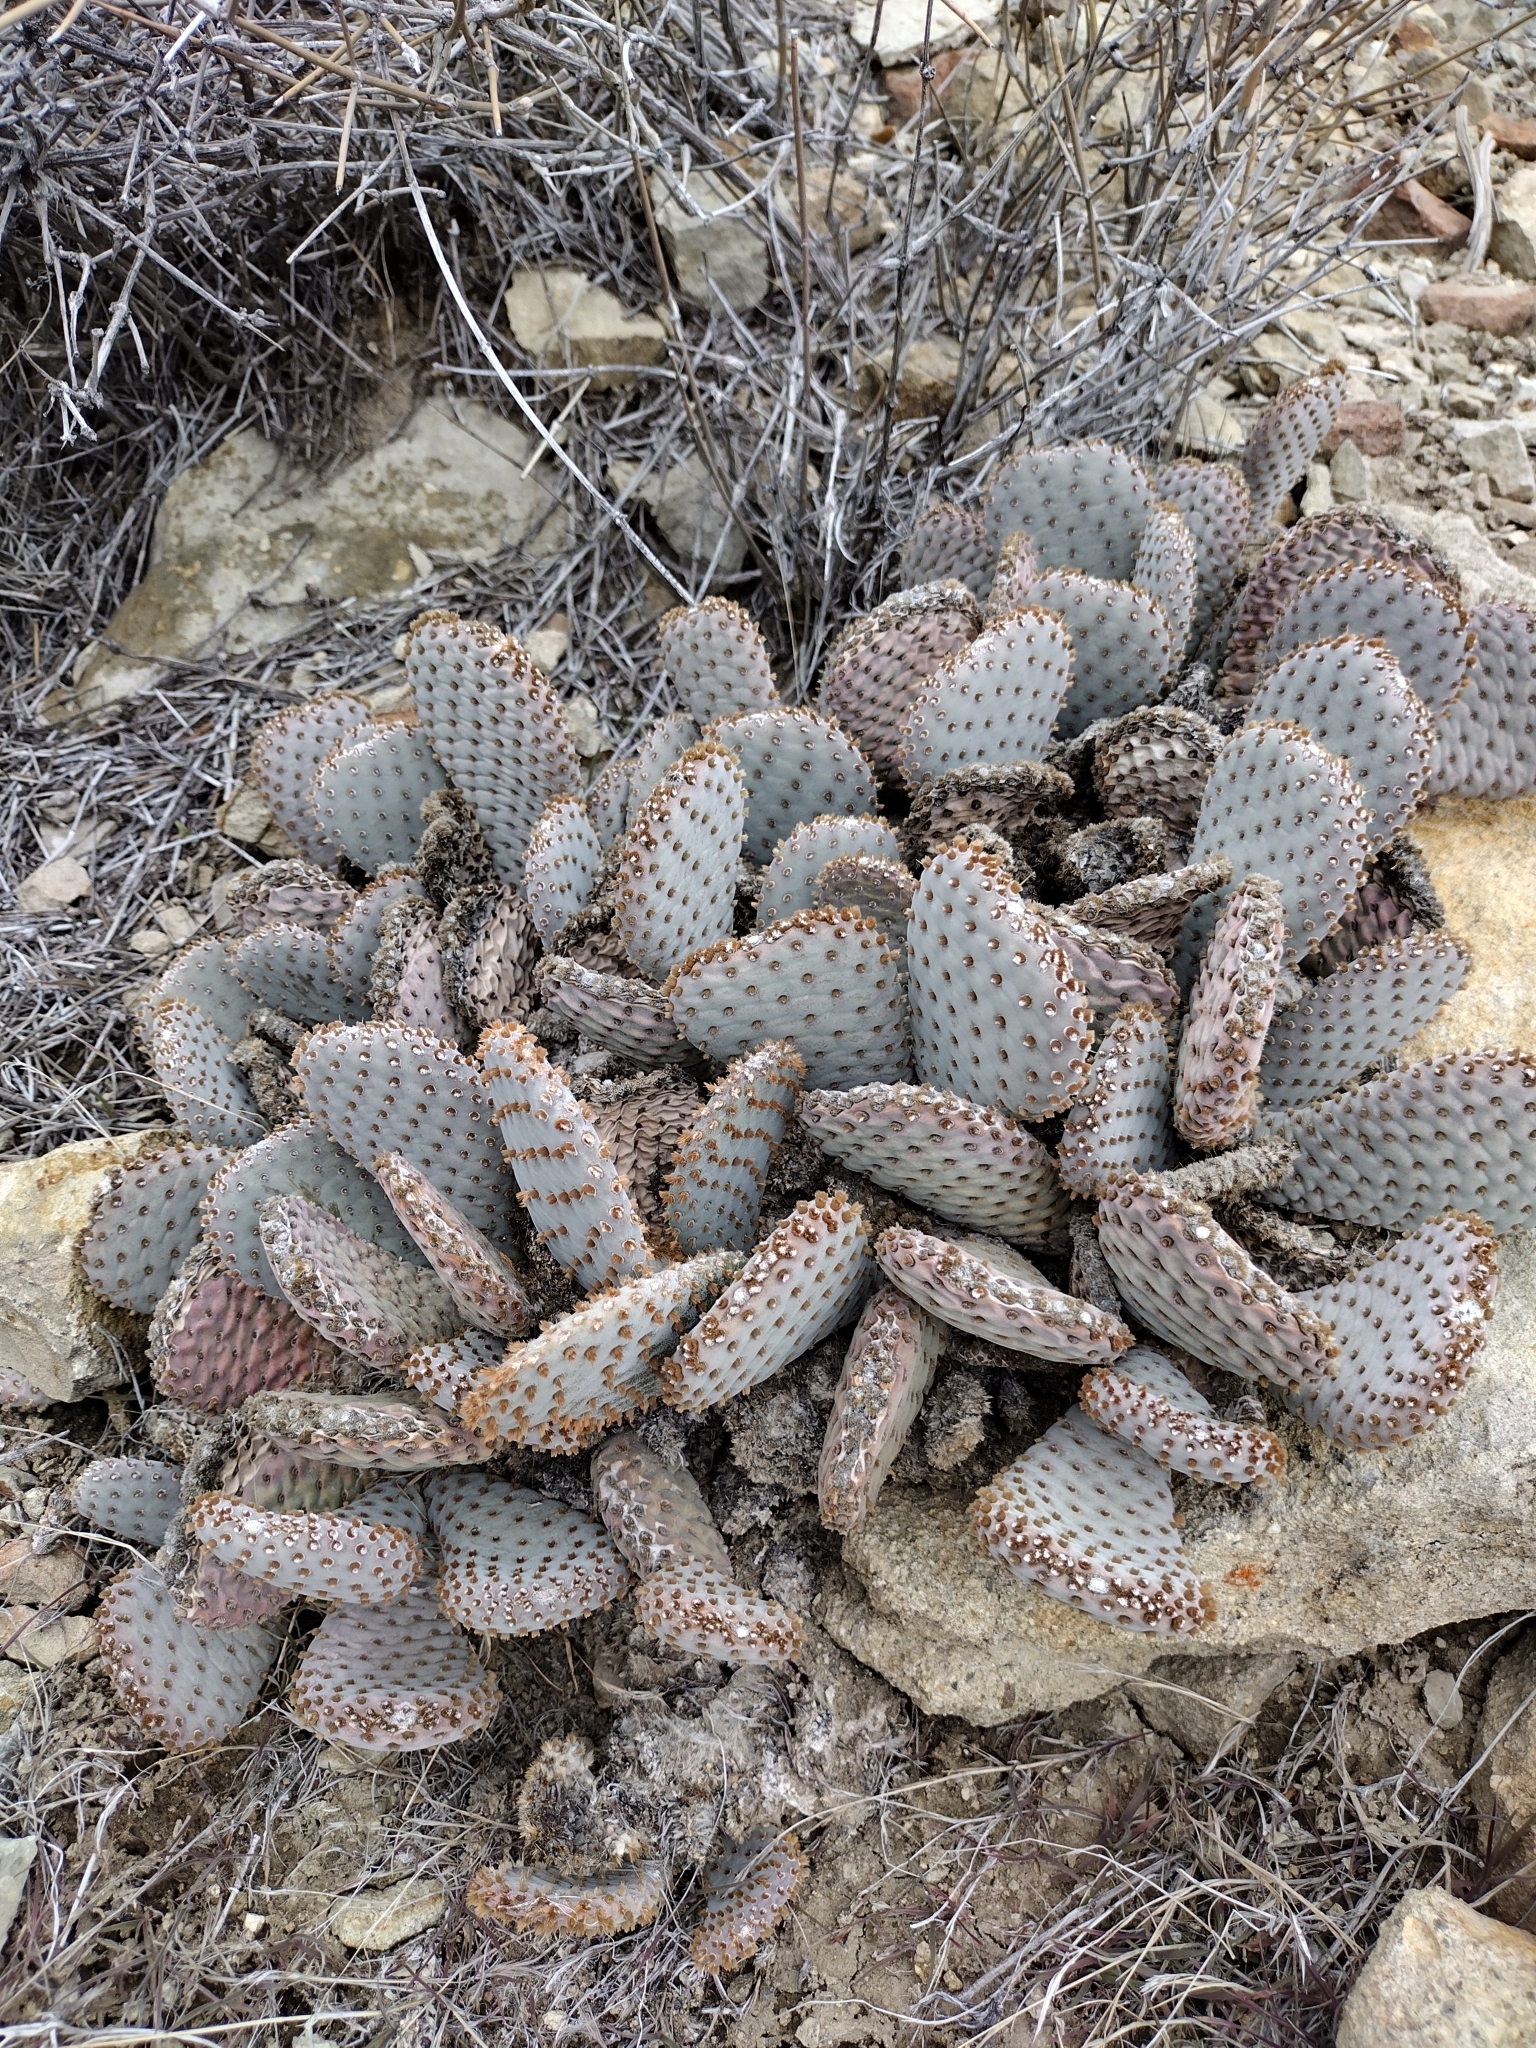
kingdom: Plantae
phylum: Tracheophyta
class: Magnoliopsida
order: Caryophyllales
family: Cactaceae
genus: Opuntia
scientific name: Opuntia basilaris
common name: Beavertail prickly-pear
